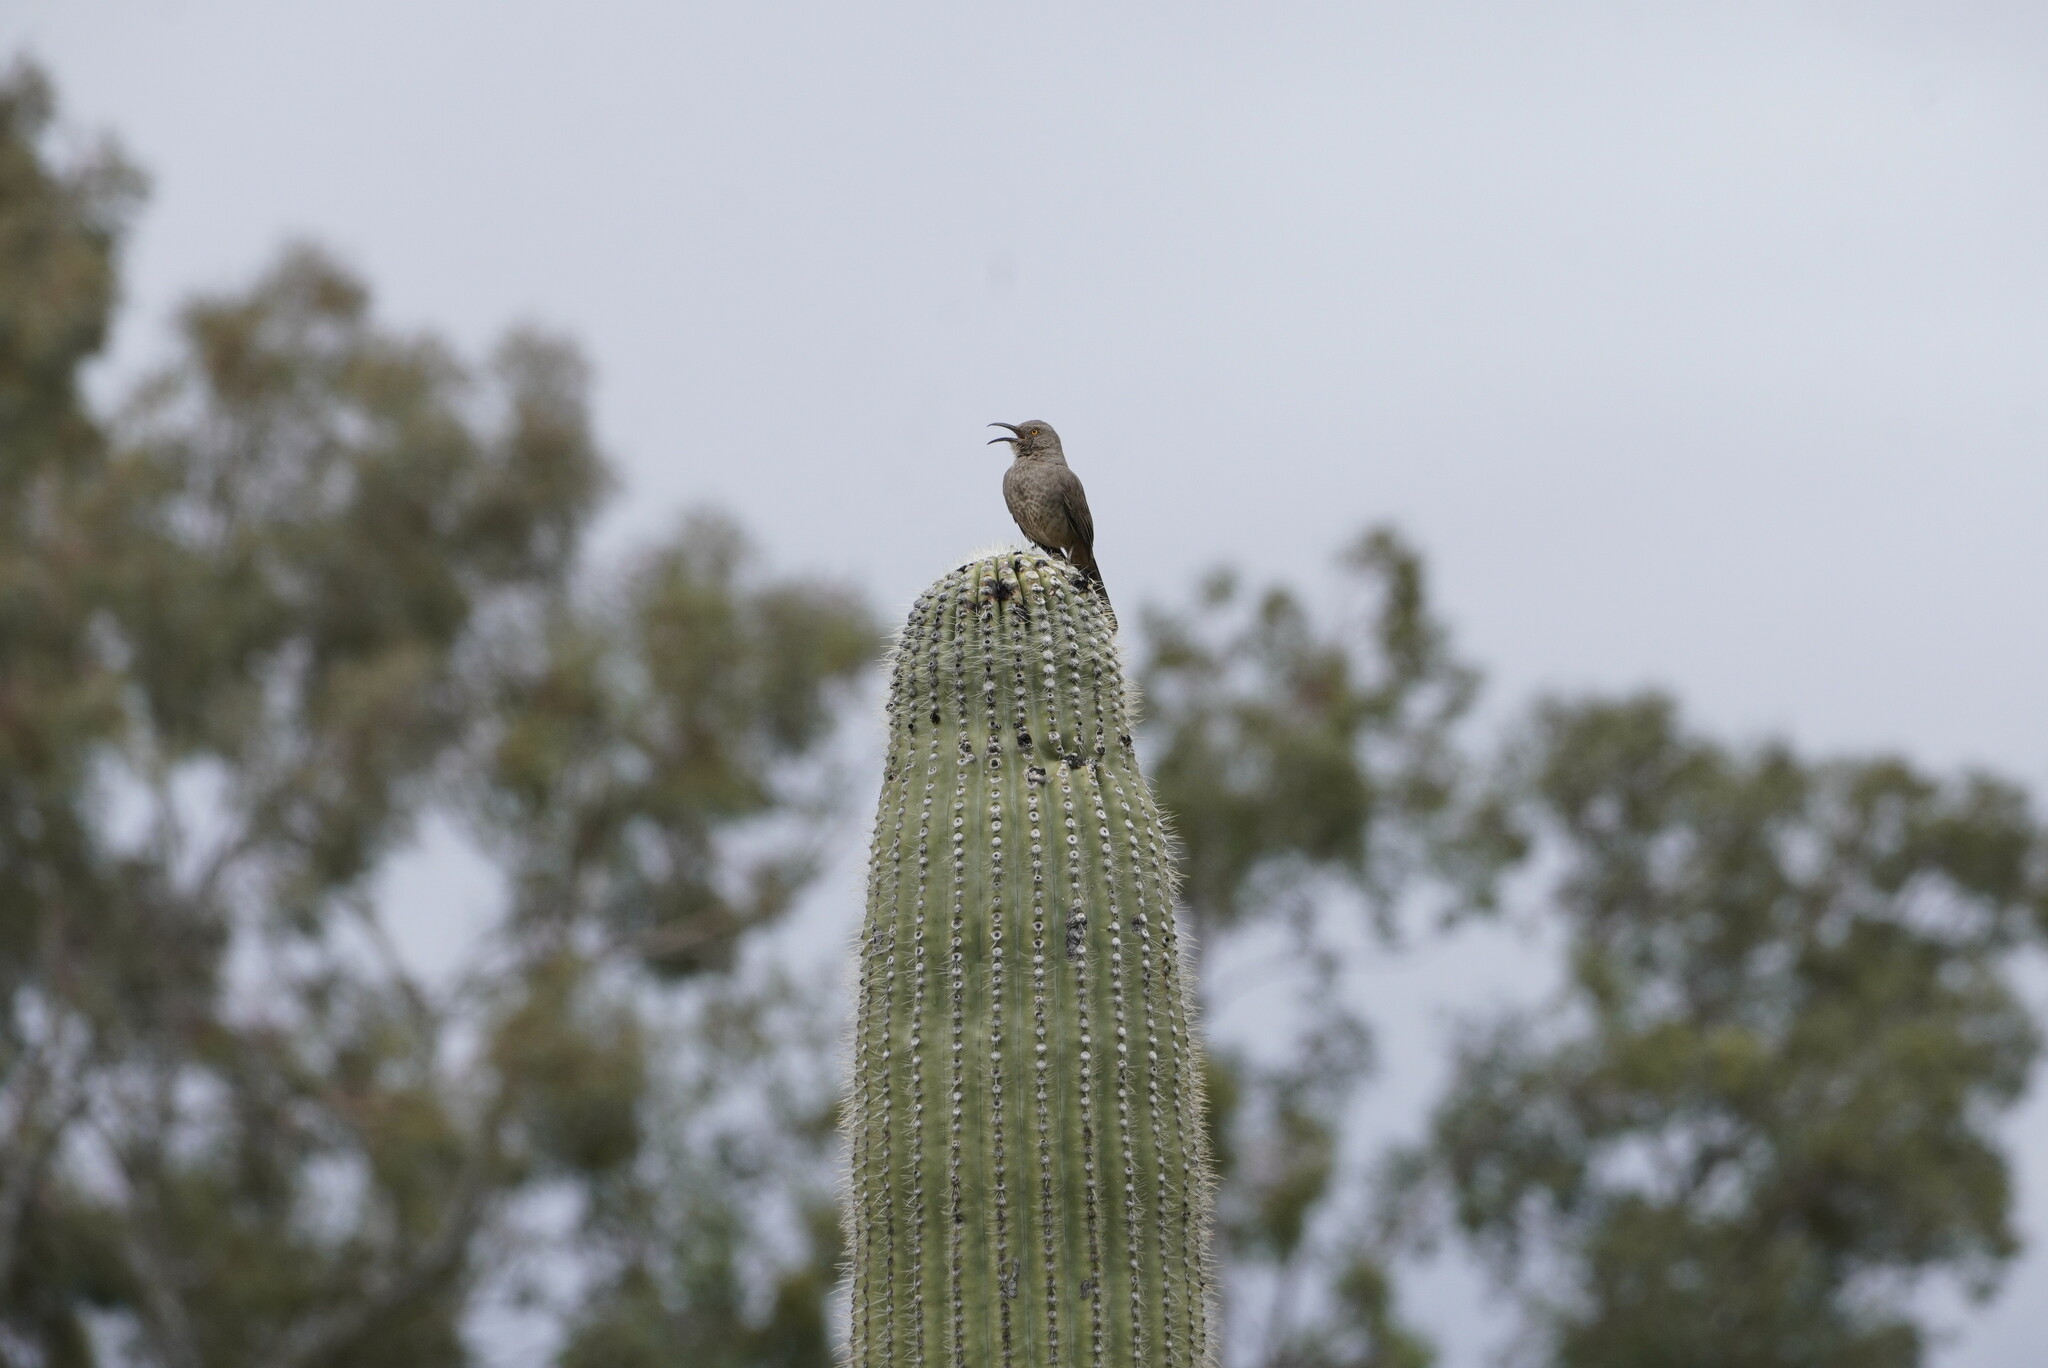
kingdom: Animalia
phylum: Chordata
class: Aves
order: Passeriformes
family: Mimidae
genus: Toxostoma
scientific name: Toxostoma curvirostre
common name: Curve-billed thrasher
